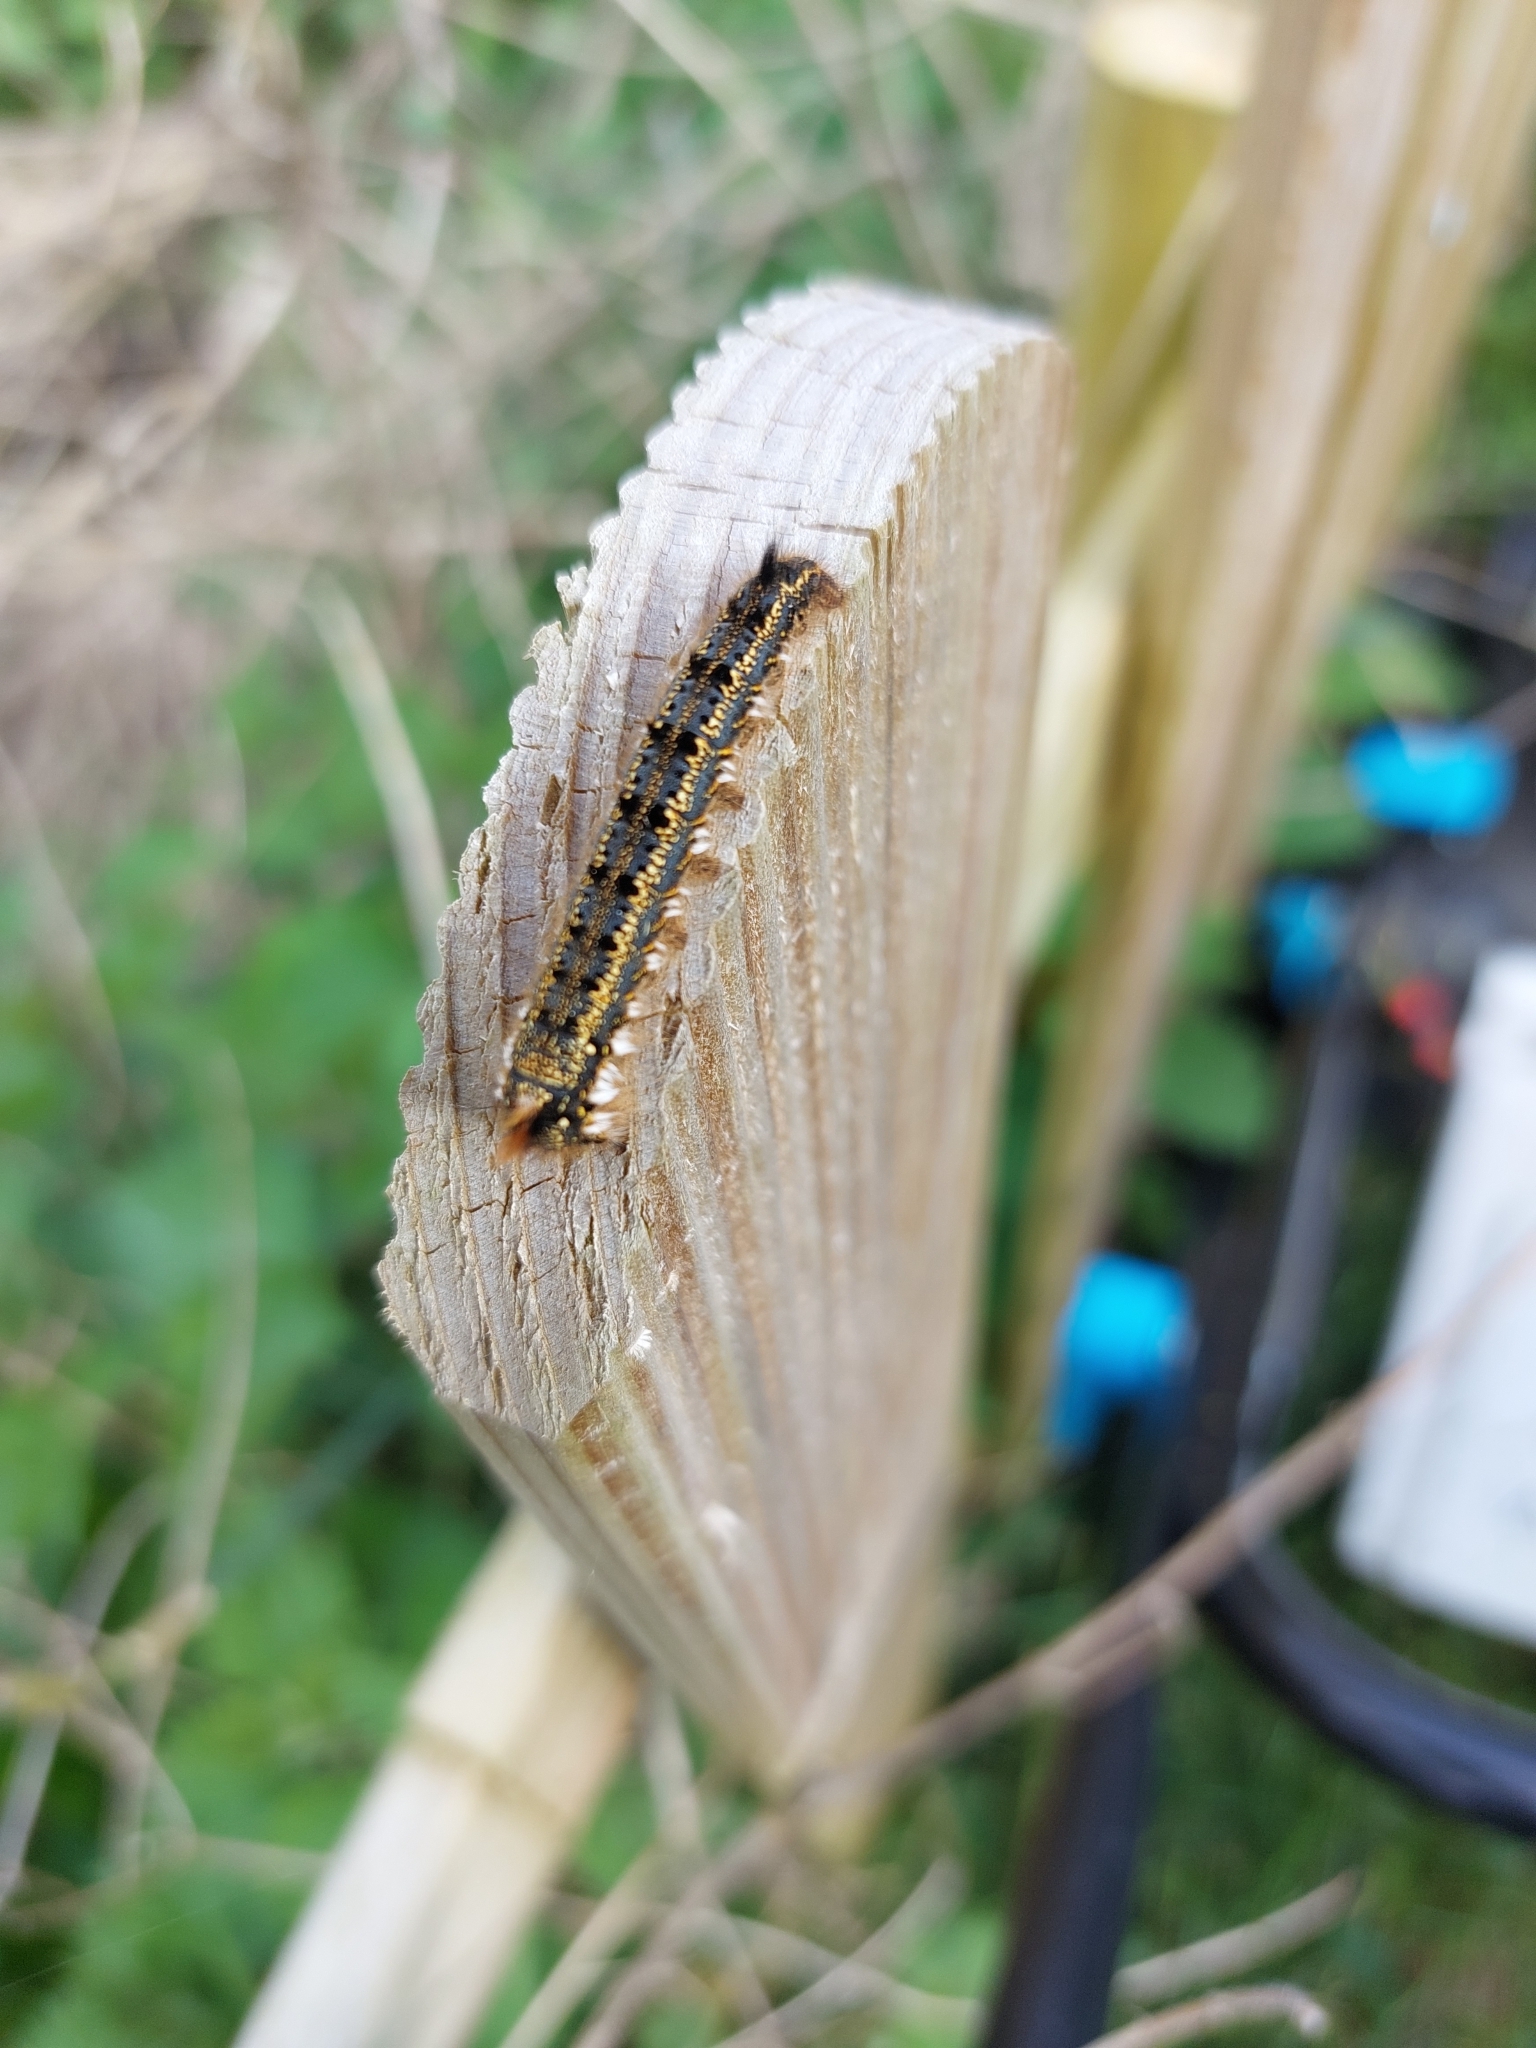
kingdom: Animalia
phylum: Arthropoda
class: Insecta
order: Lepidoptera
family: Lasiocampidae
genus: Euthrix
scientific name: Euthrix potatoria
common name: Drinker
